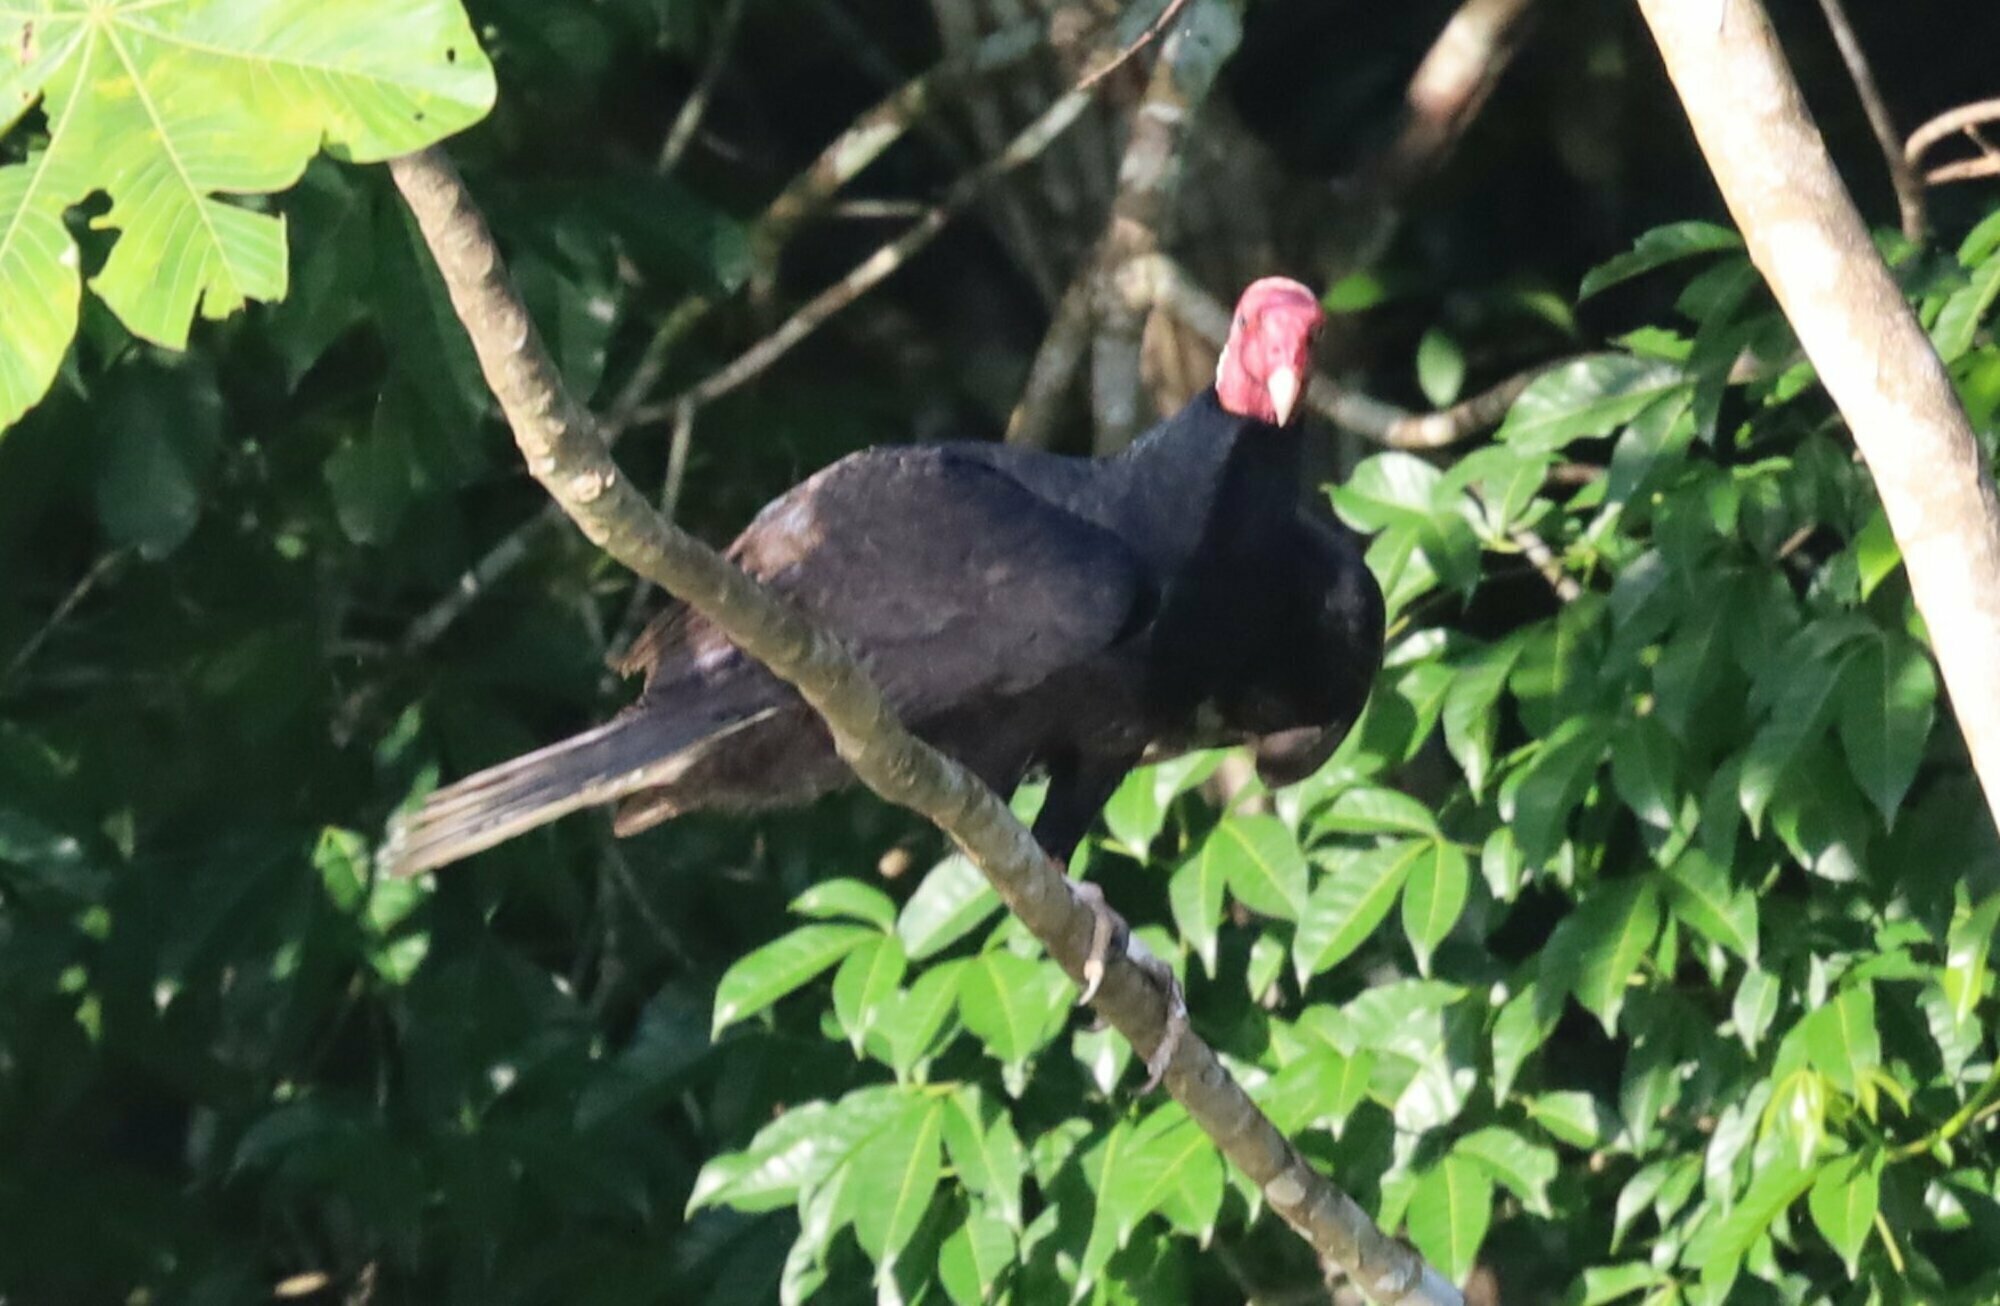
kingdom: Animalia
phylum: Chordata
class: Aves
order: Accipitriformes
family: Cathartidae
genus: Cathartes
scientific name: Cathartes aura
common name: Turkey vulture
